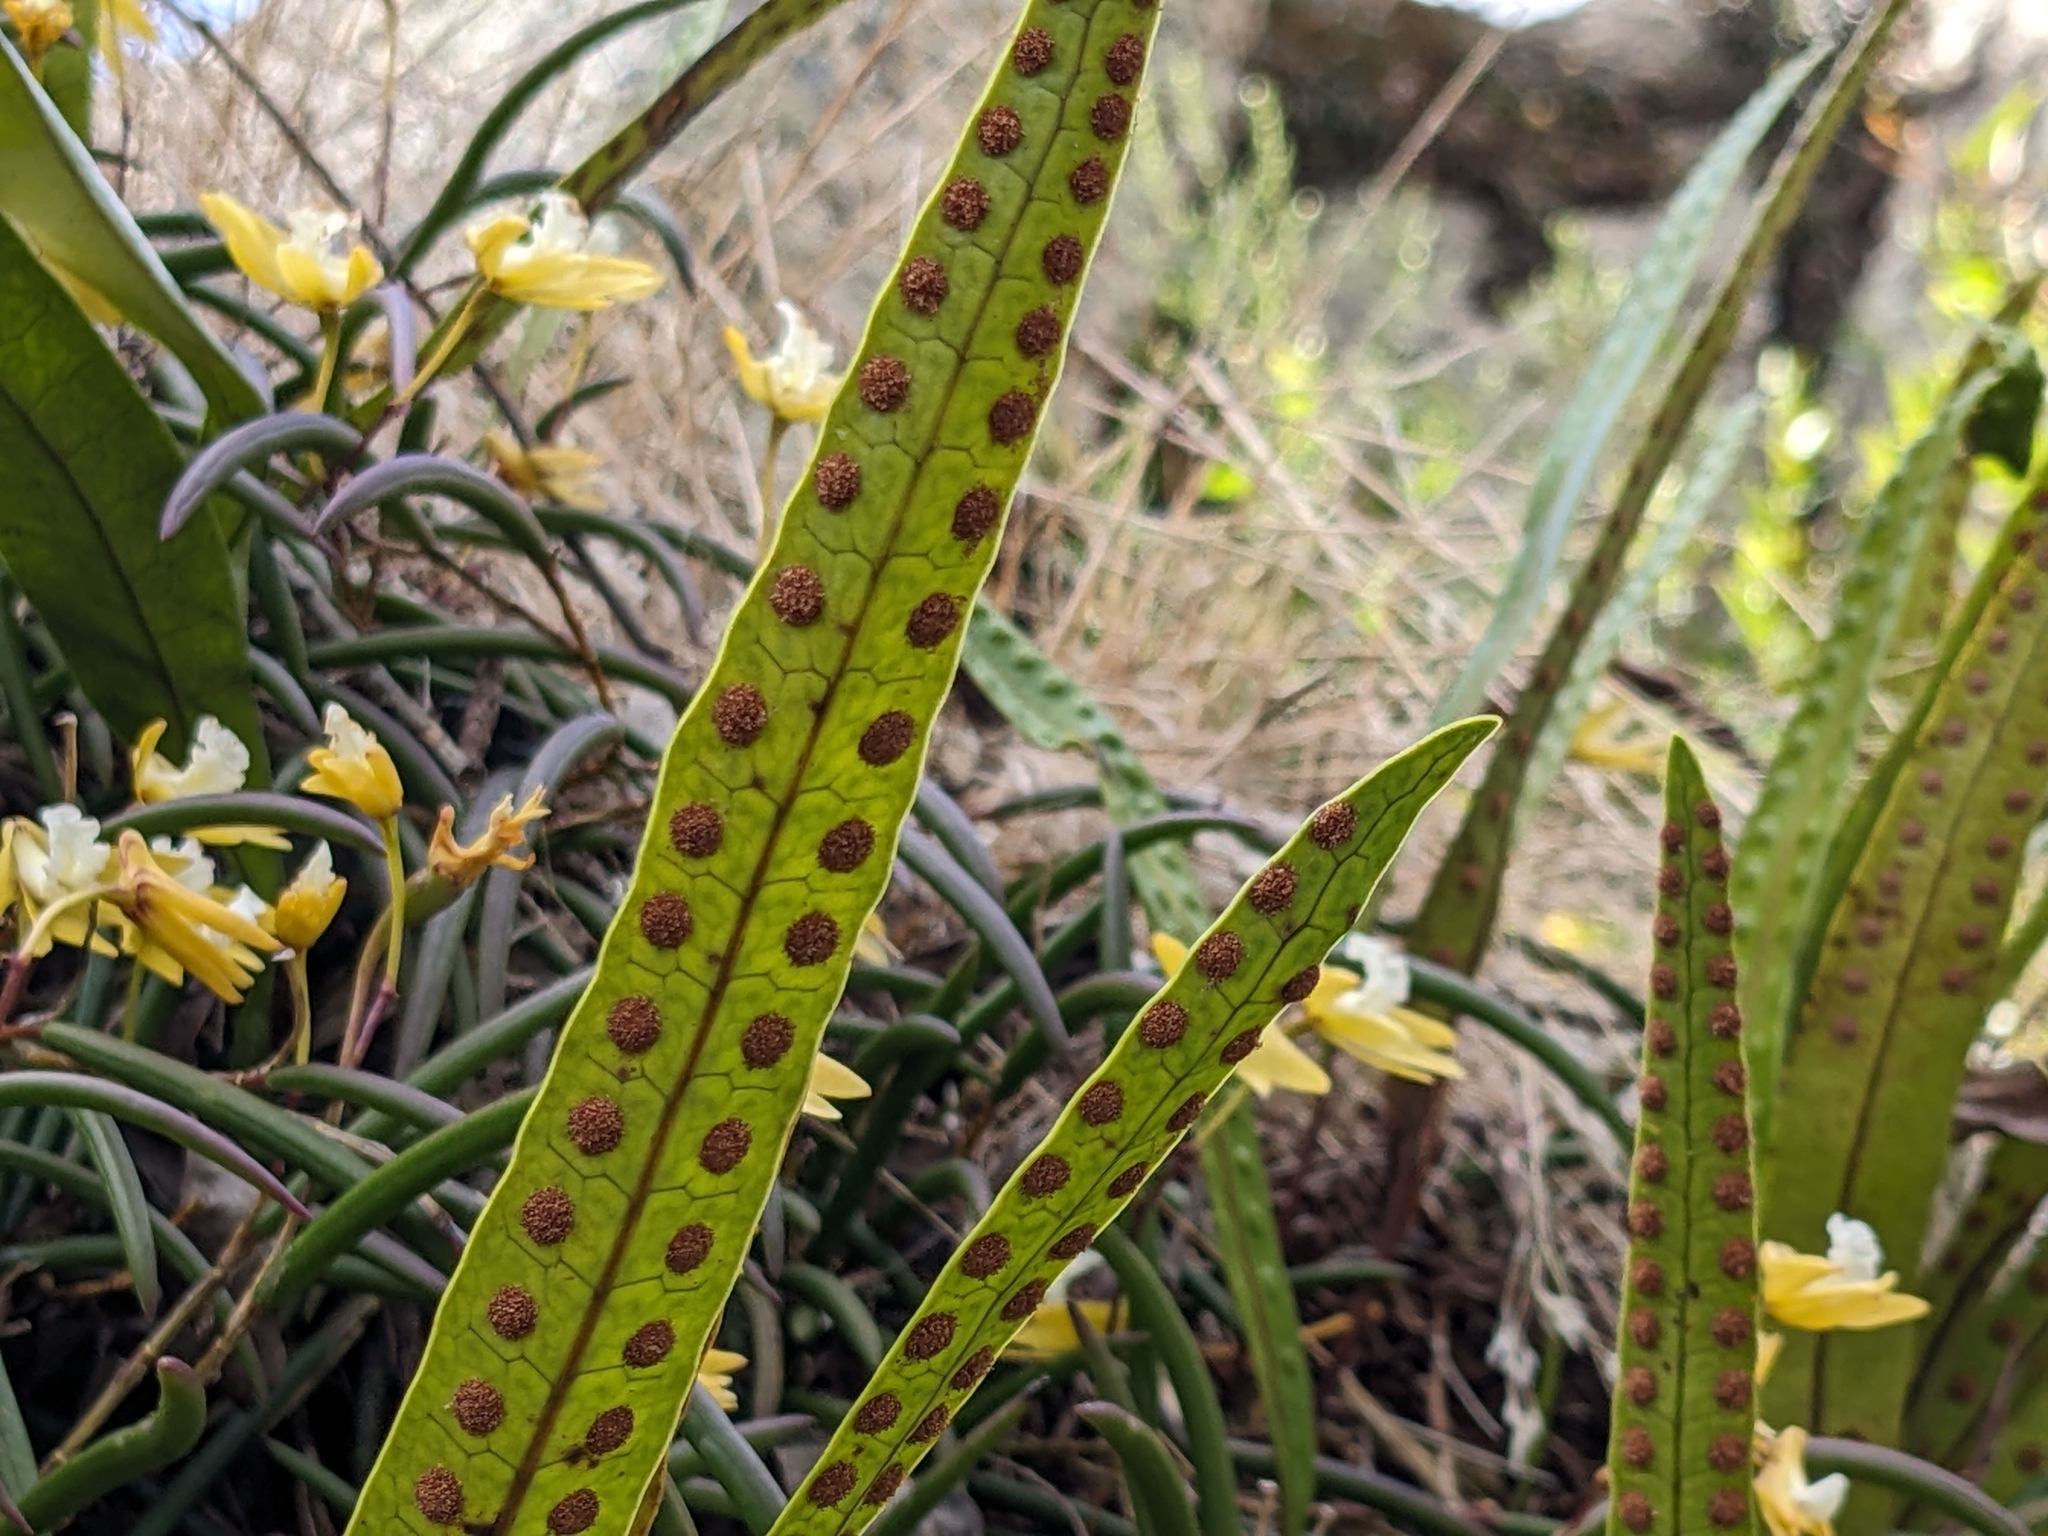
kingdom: Plantae
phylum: Tracheophyta
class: Polypodiopsida
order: Polypodiales
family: Polypodiaceae
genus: Lecanopteris
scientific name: Lecanopteris pustulata
